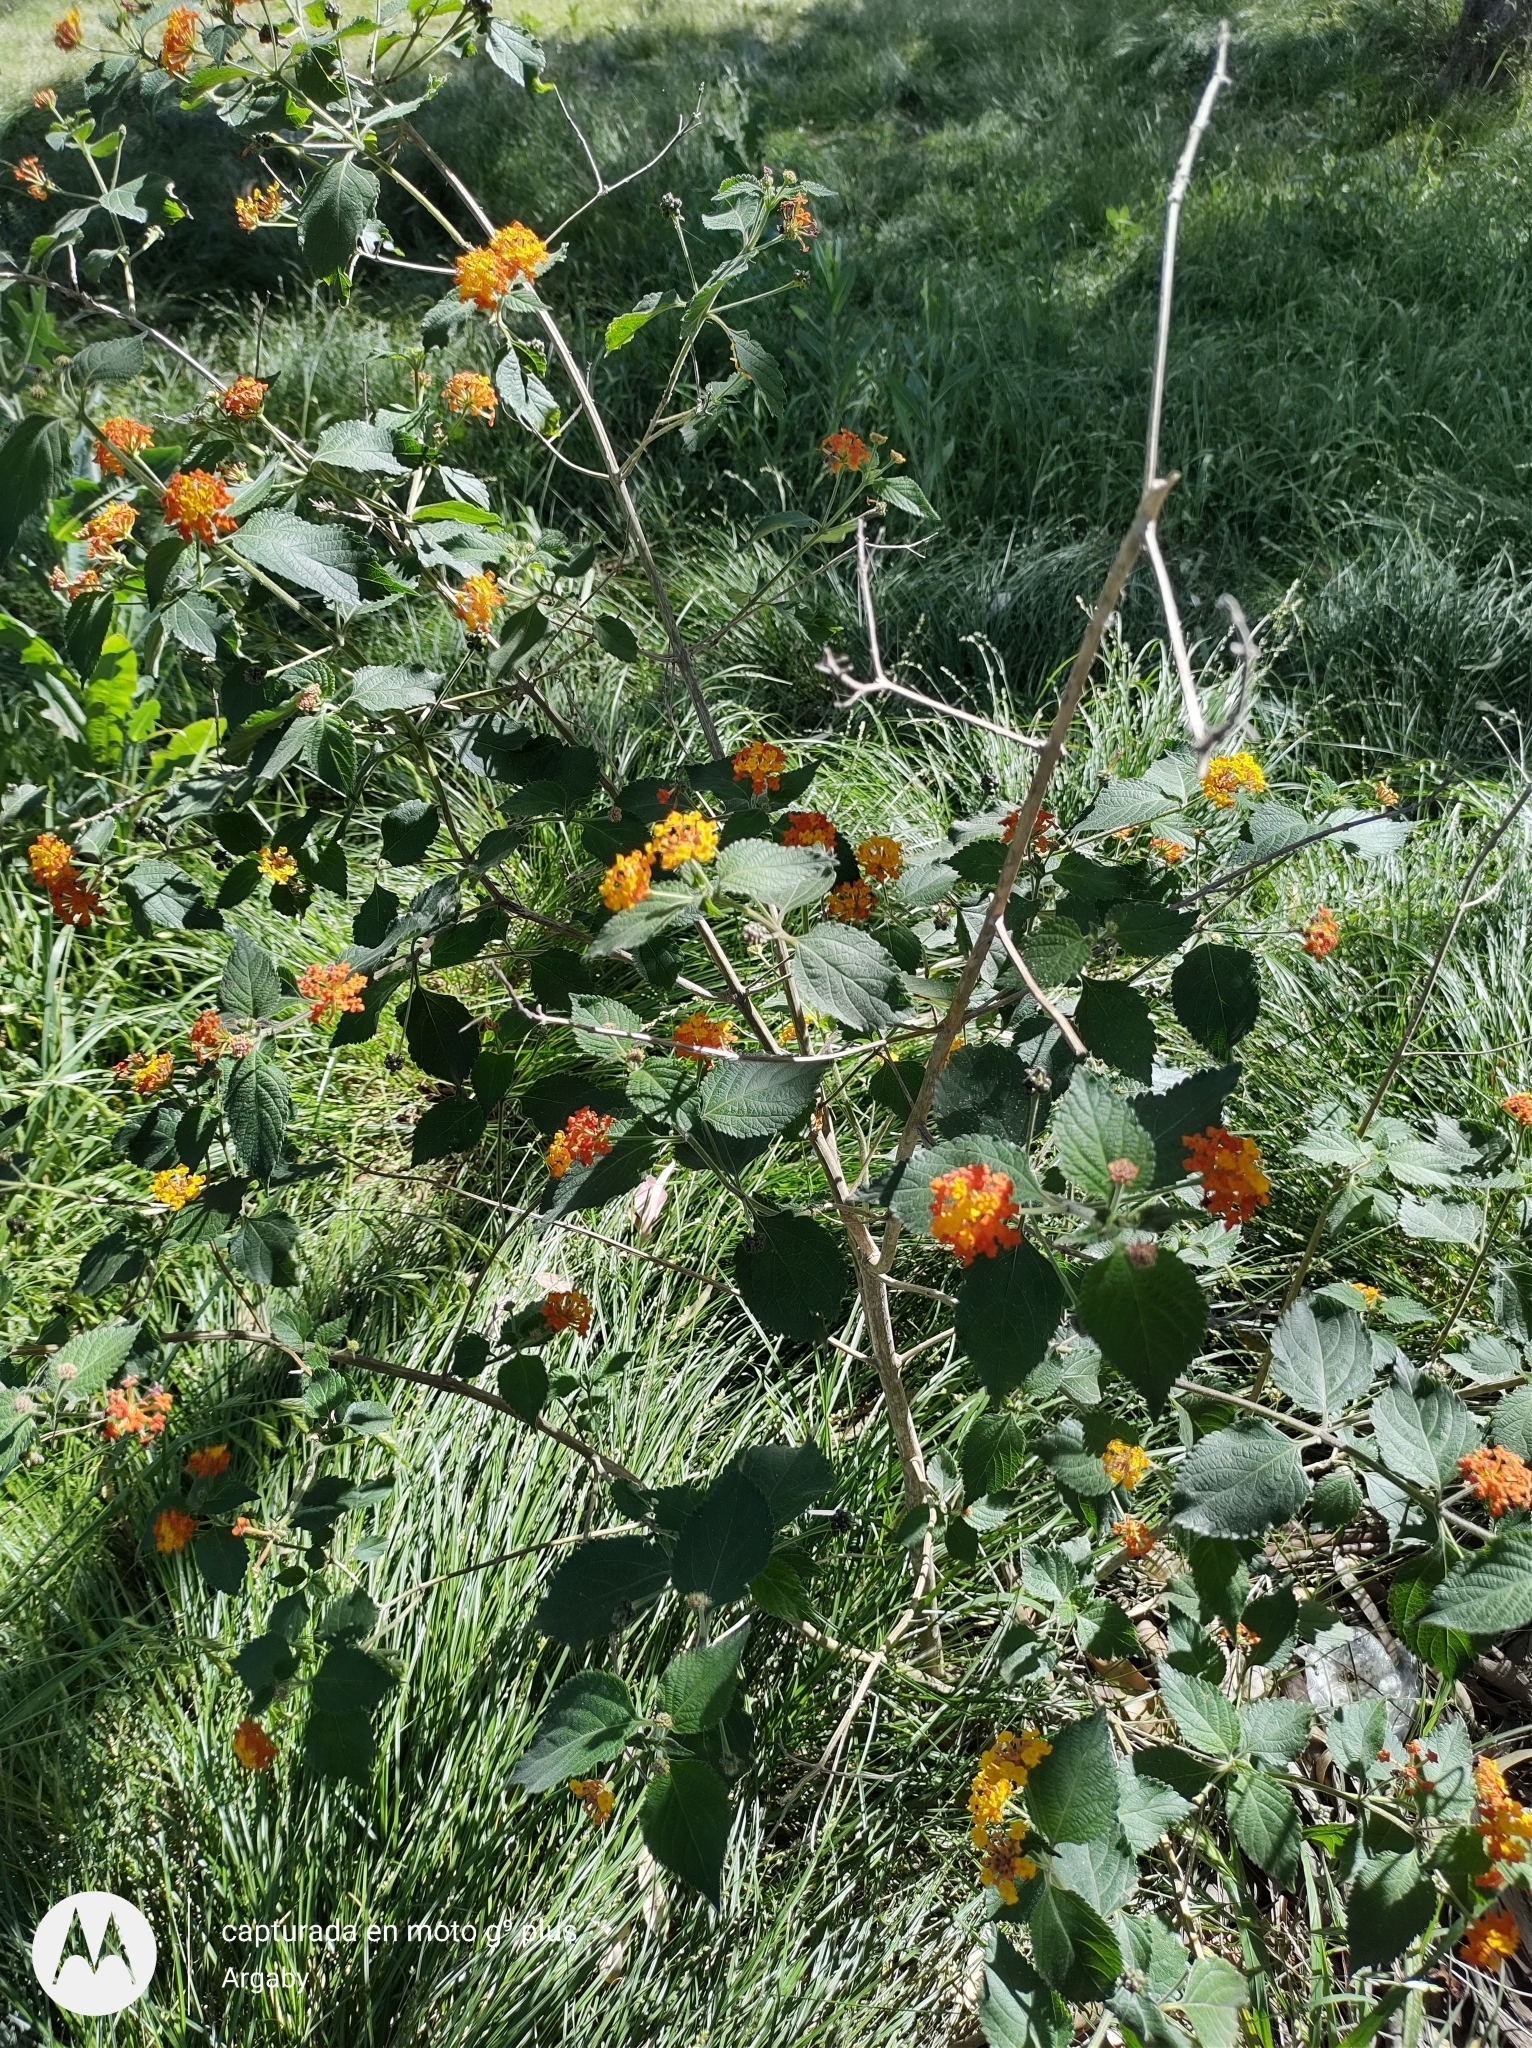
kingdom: Plantae
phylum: Tracheophyta
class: Magnoliopsida
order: Lamiales
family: Verbenaceae
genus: Lantana
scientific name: Lantana camara
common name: Lantana
